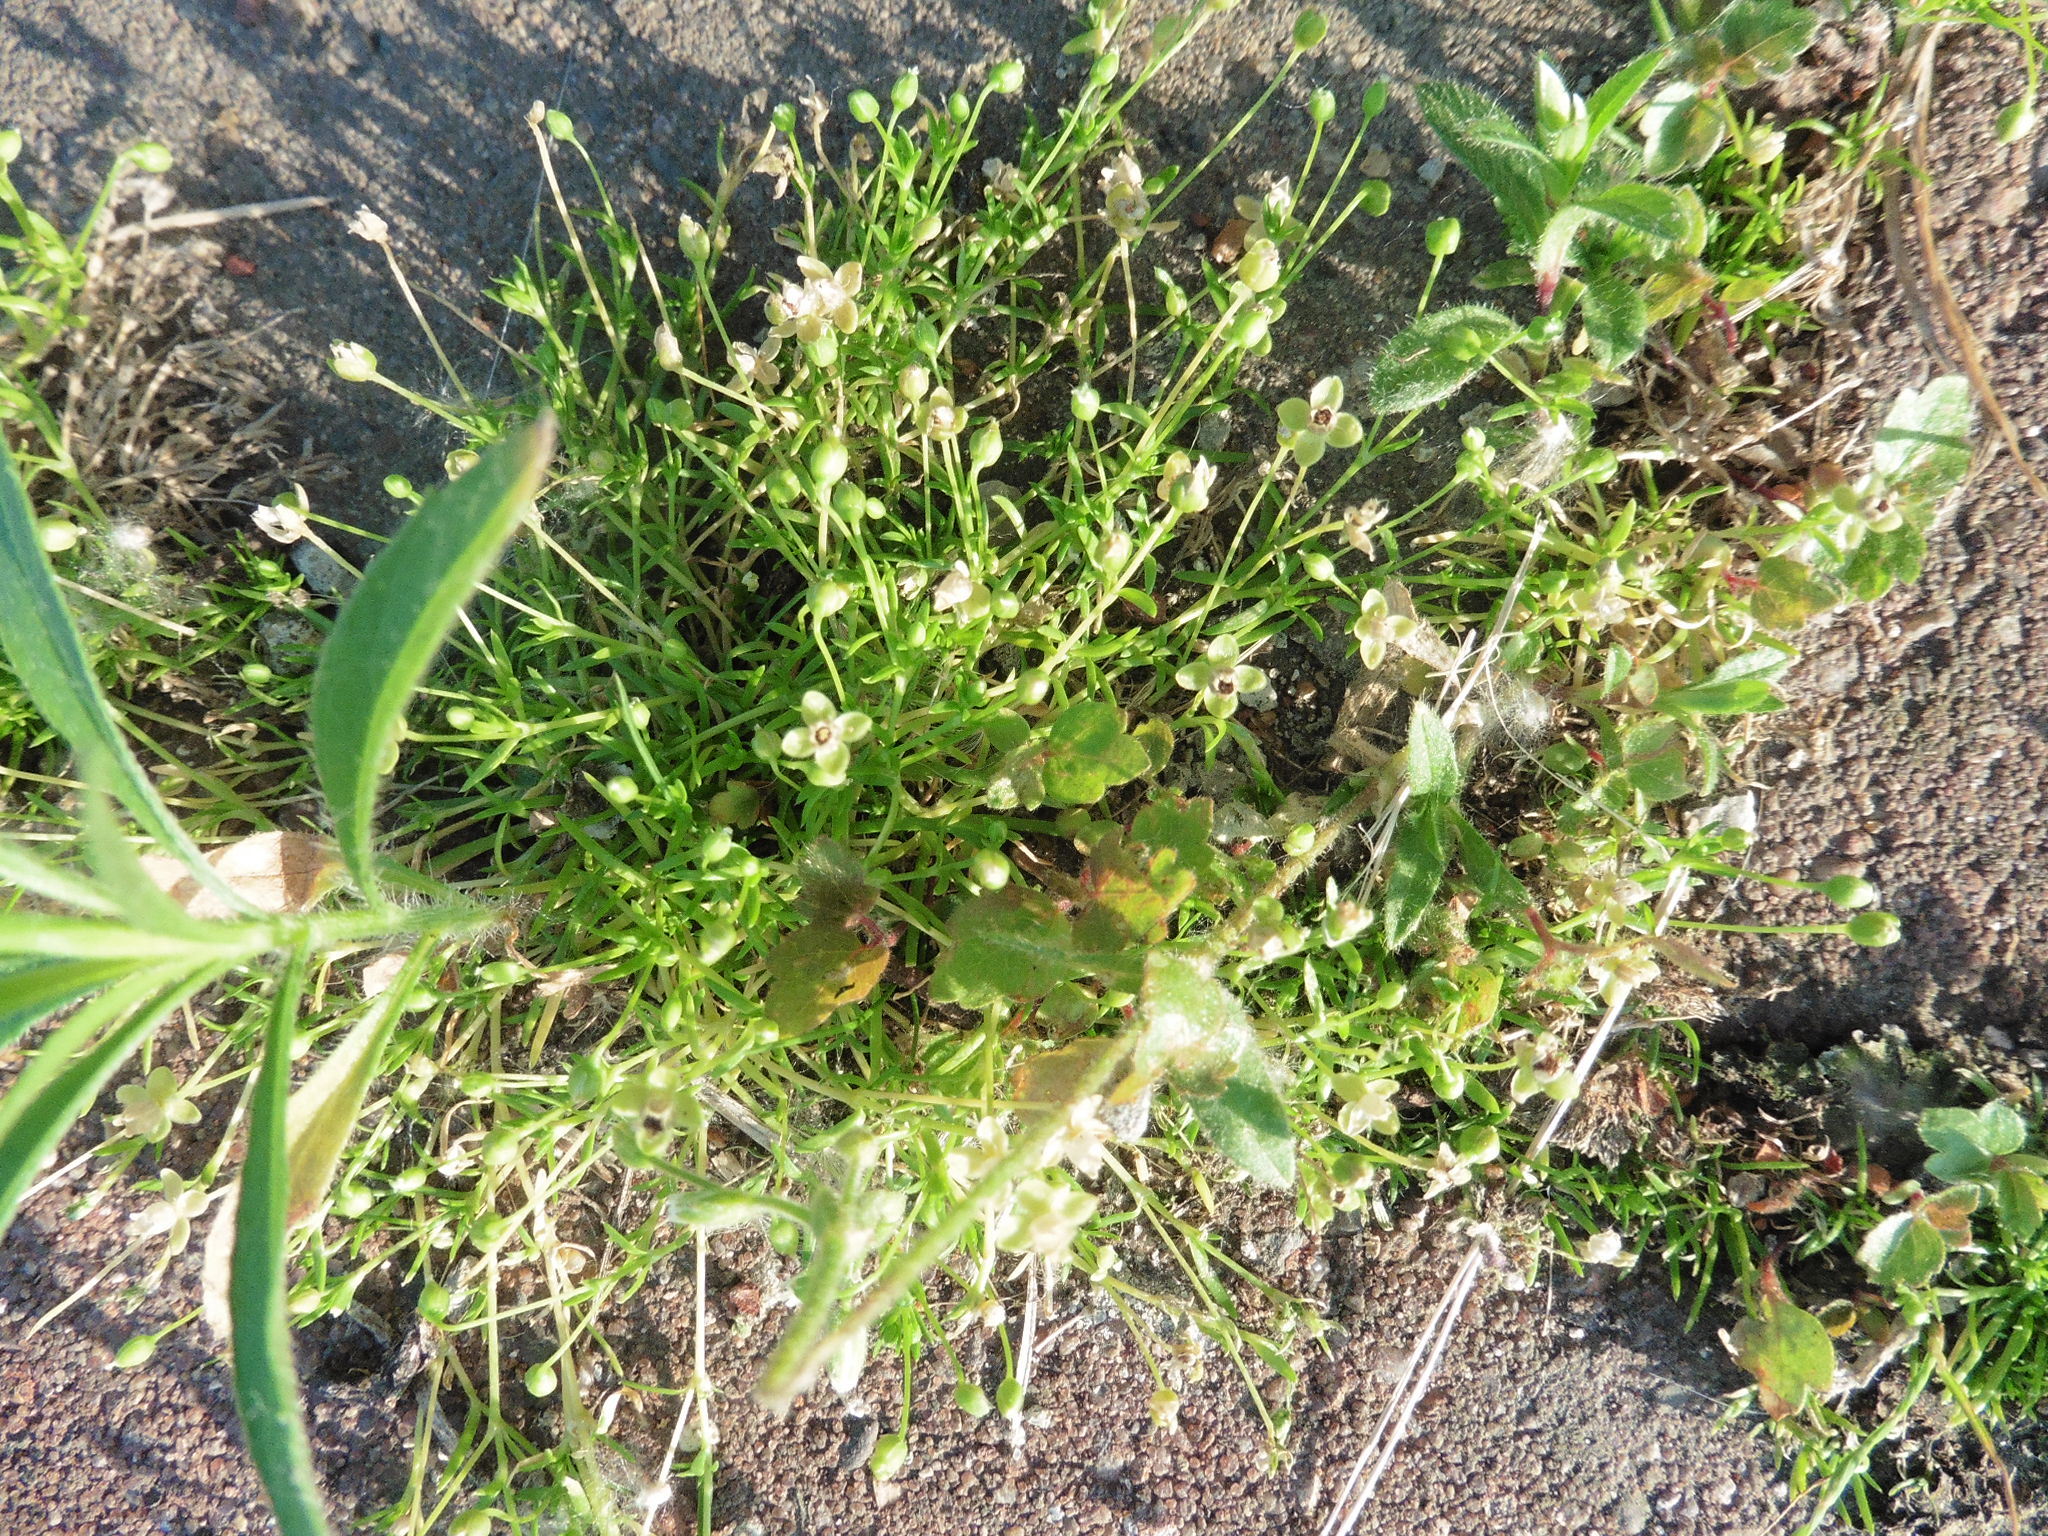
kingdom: Plantae
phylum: Tracheophyta
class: Magnoliopsida
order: Caryophyllales
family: Caryophyllaceae
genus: Sagina
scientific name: Sagina procumbens
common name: Procumbent pearlwort
